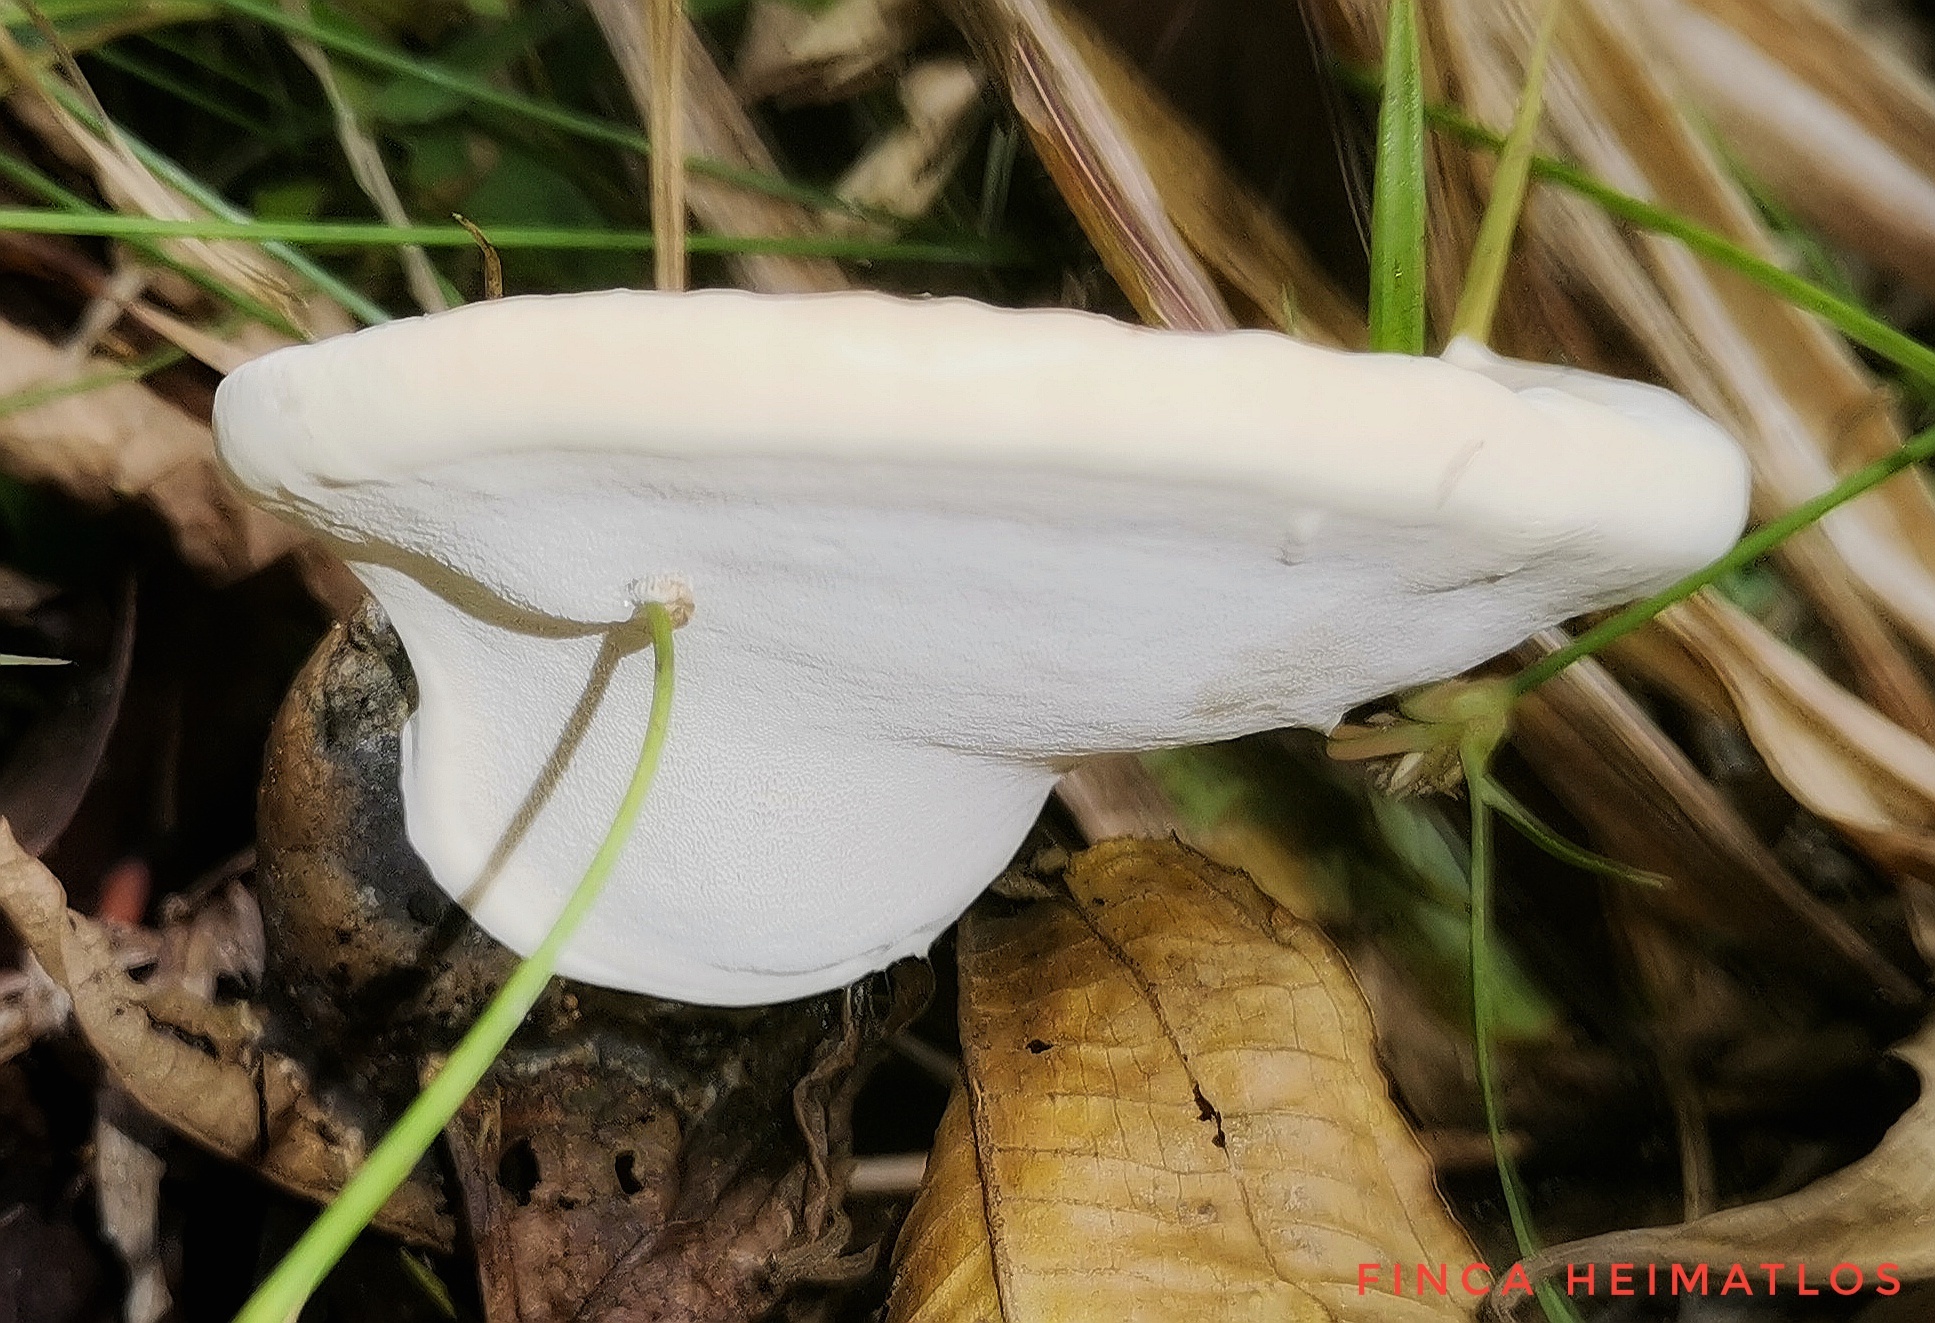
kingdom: Fungi
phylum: Basidiomycota
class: Agaricomycetes
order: Polyporales
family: Polyporaceae
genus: Ganoderma
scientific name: Ganoderma fornicatum
